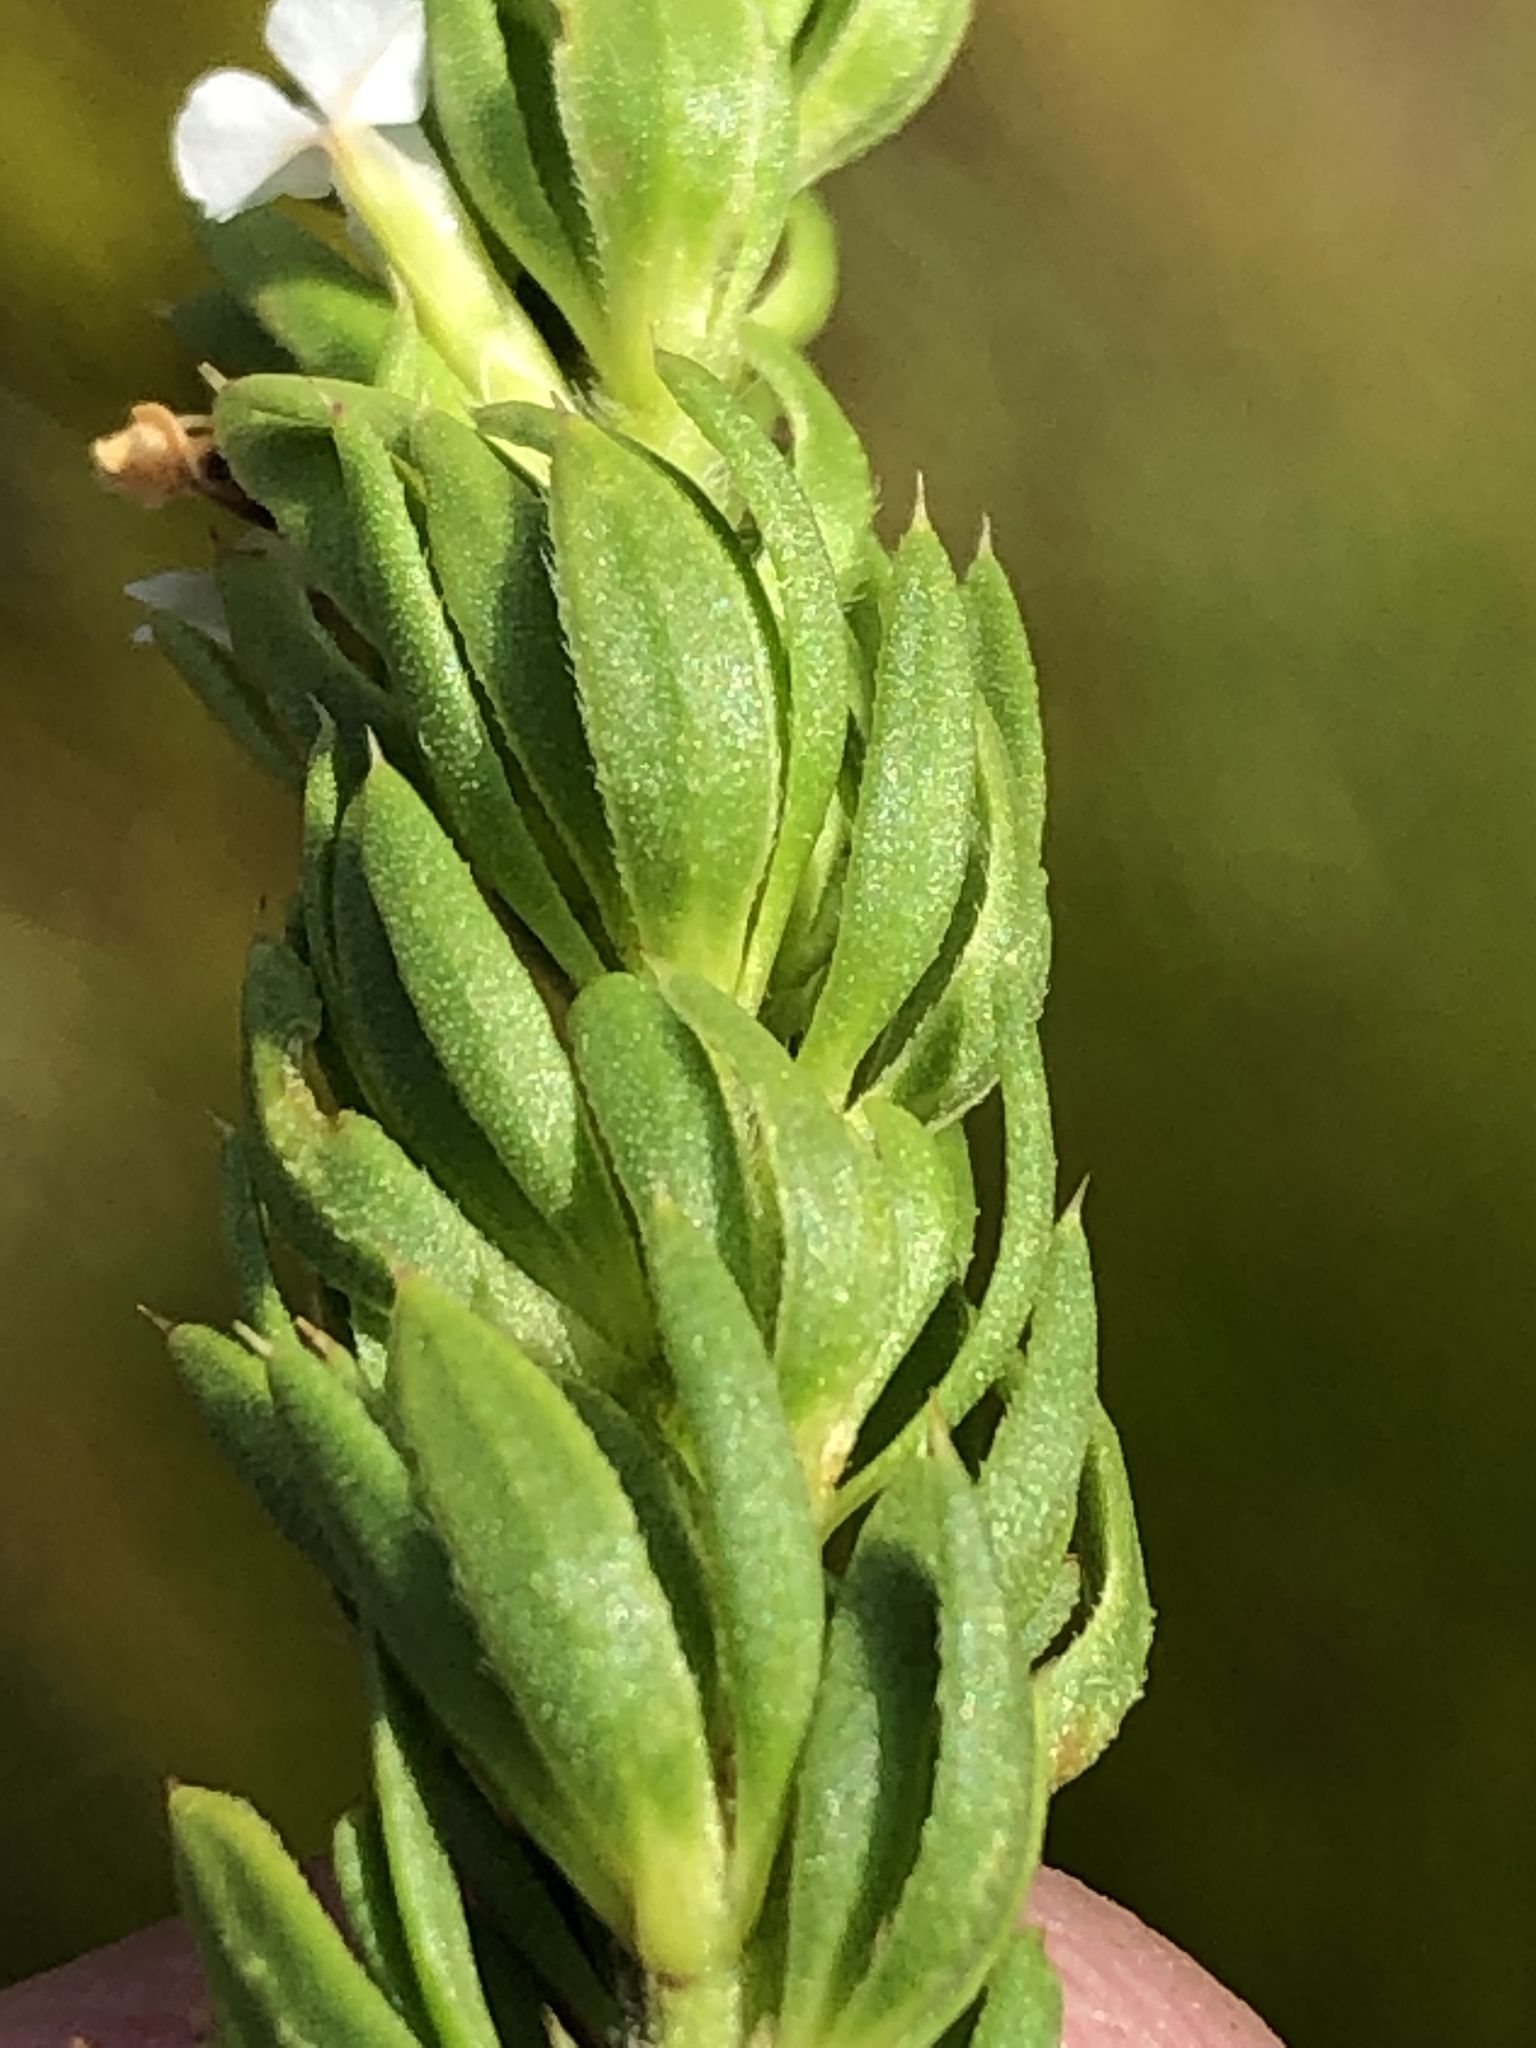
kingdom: Plantae
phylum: Tracheophyta
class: Magnoliopsida
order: Fabales
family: Polygalaceae
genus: Muraltia
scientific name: Muraltia alba
